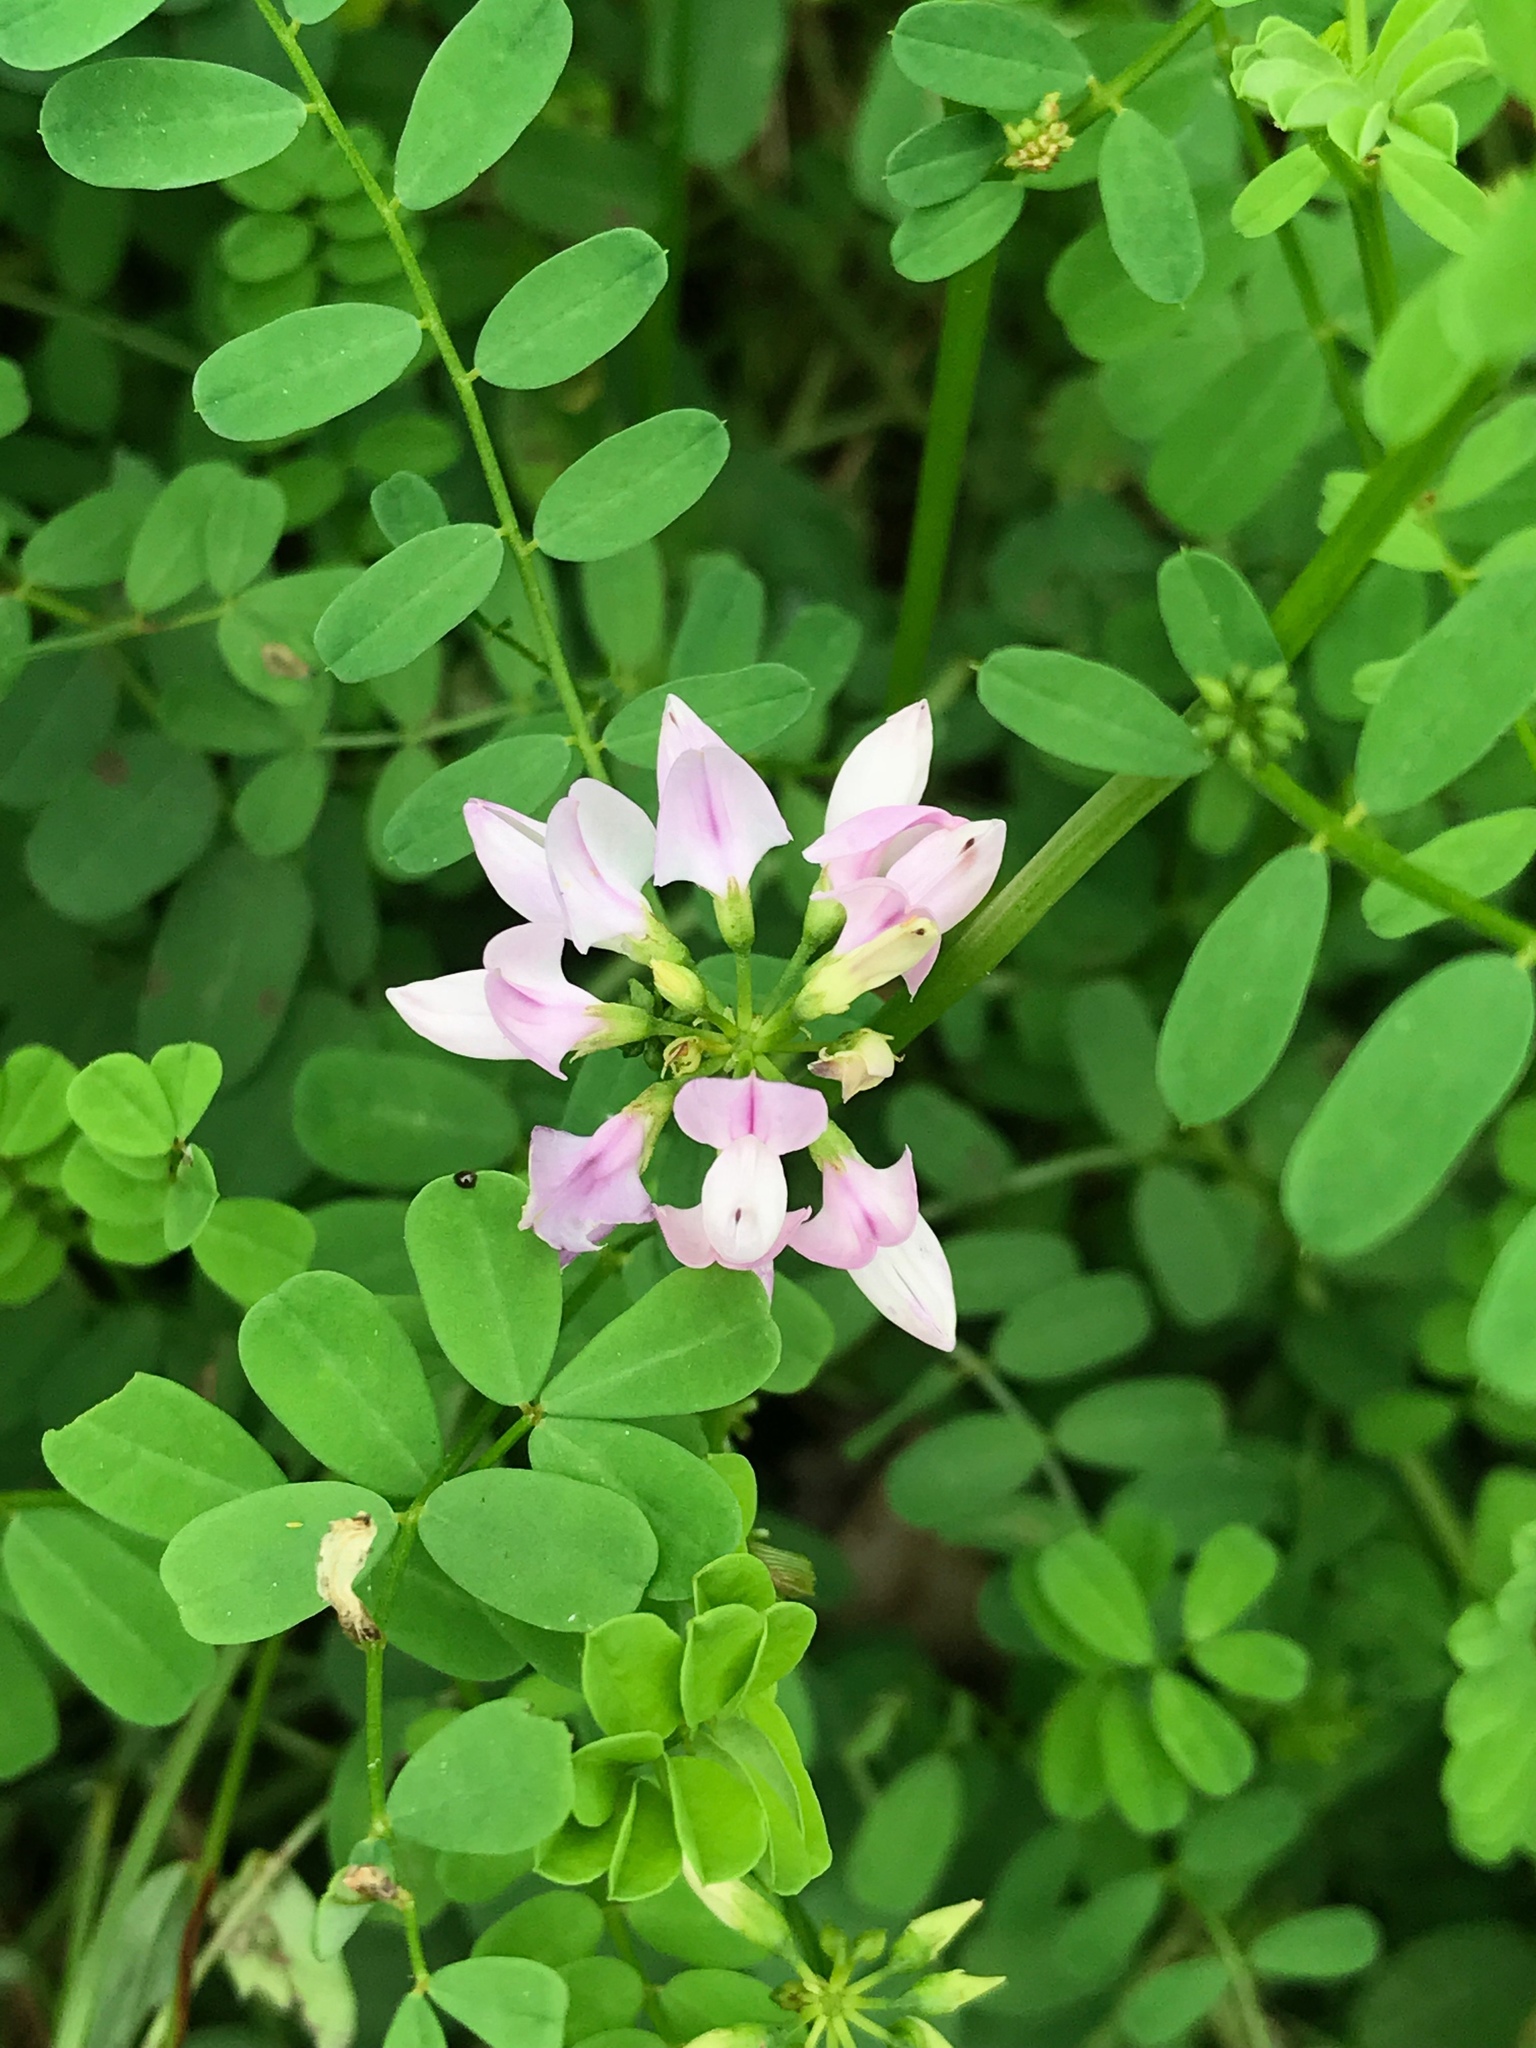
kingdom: Plantae
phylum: Tracheophyta
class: Magnoliopsida
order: Fabales
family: Fabaceae
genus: Coronilla
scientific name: Coronilla varia
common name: Crownvetch
